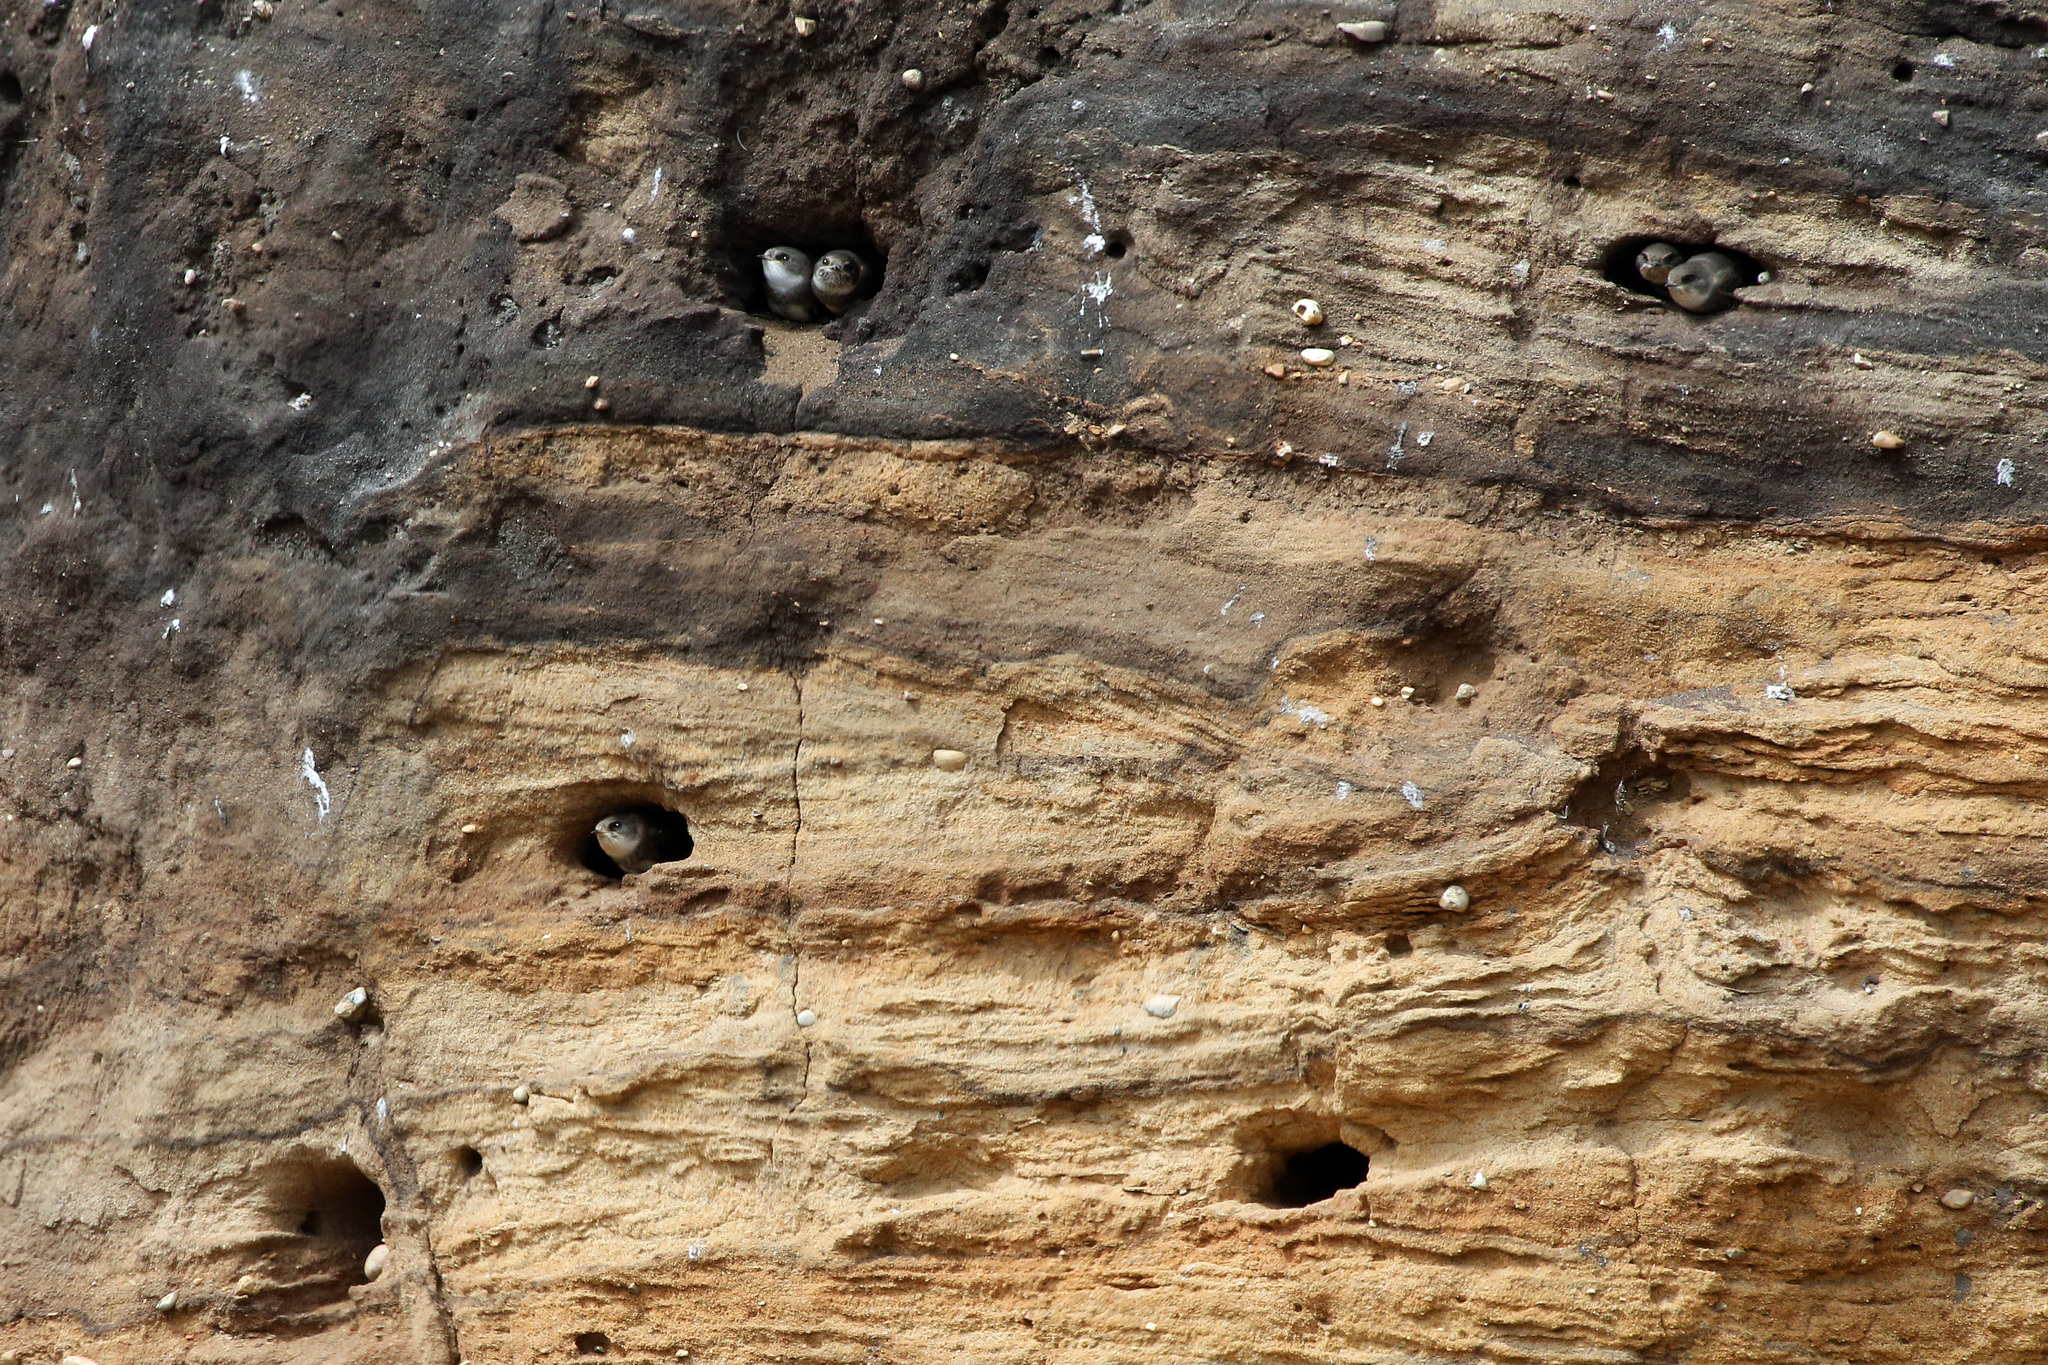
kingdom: Animalia
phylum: Chordata
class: Aves
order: Passeriformes
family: Hirundinidae
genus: Riparia
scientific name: Riparia riparia
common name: Sand martin
